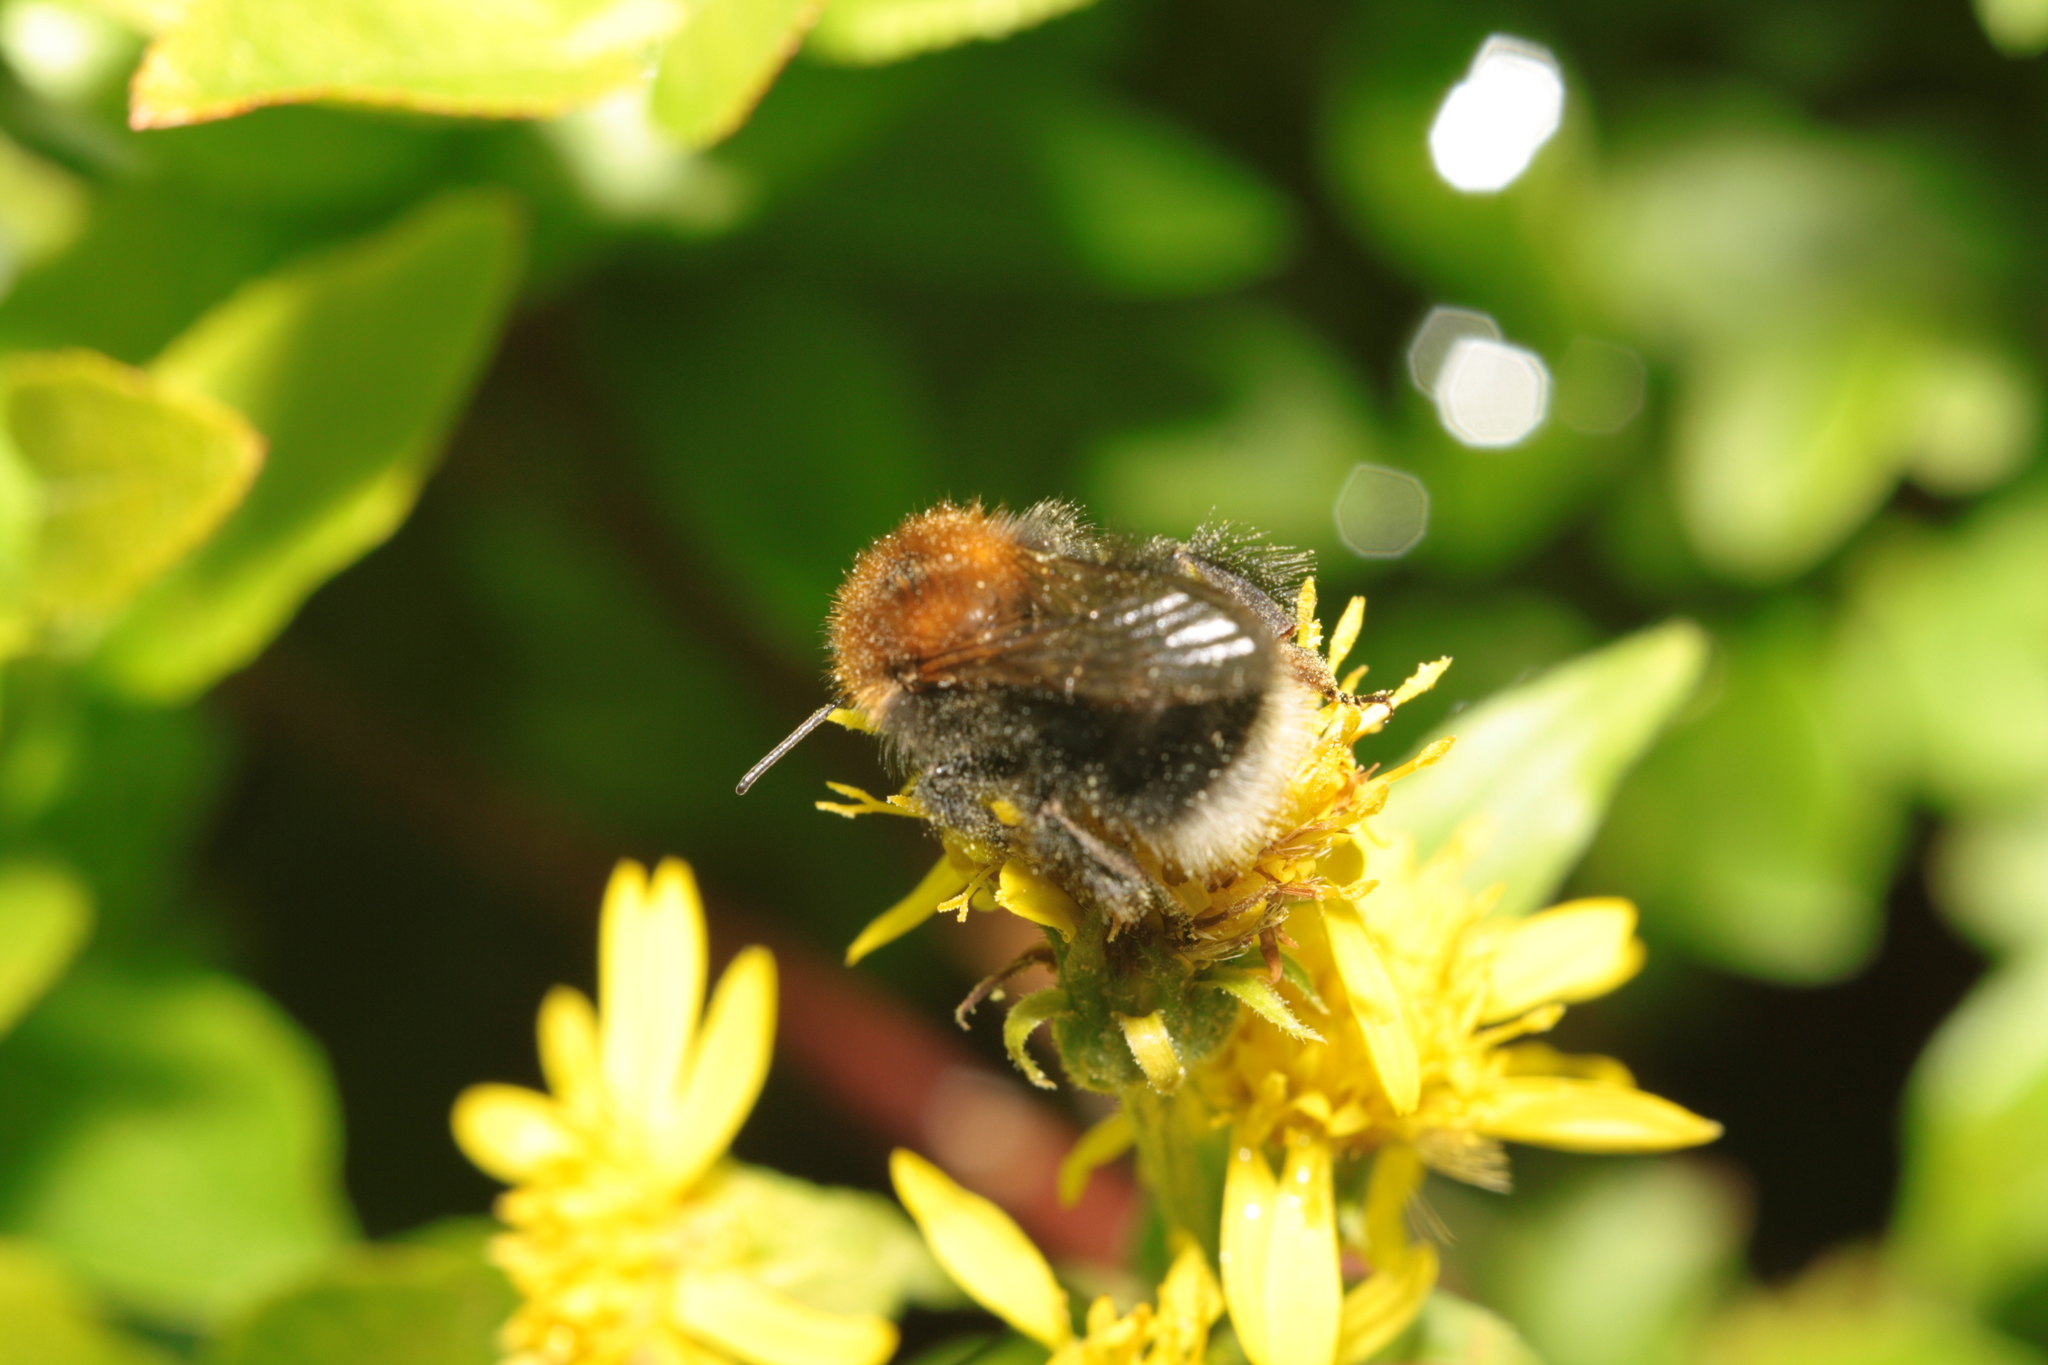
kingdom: Animalia
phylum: Arthropoda
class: Insecta
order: Hymenoptera
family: Apidae
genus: Bombus
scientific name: Bombus hypnorum
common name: New garden bumblebee
